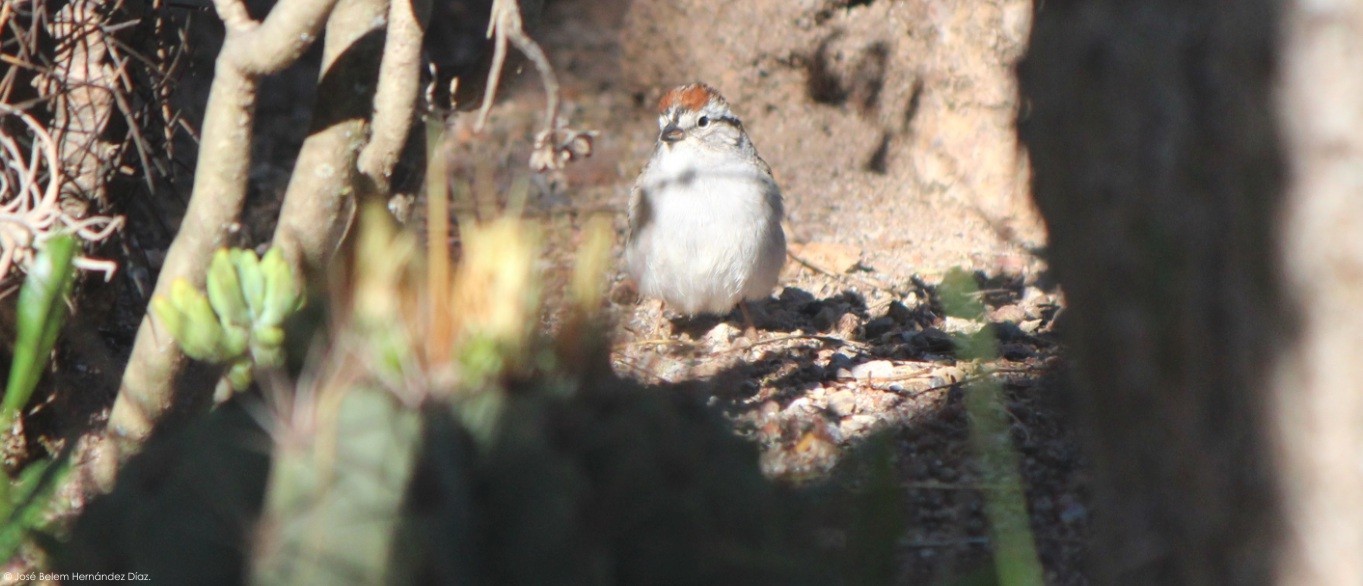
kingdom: Animalia
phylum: Chordata
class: Aves
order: Passeriformes
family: Passerellidae
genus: Spizella
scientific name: Spizella passerina
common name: Chipping sparrow
